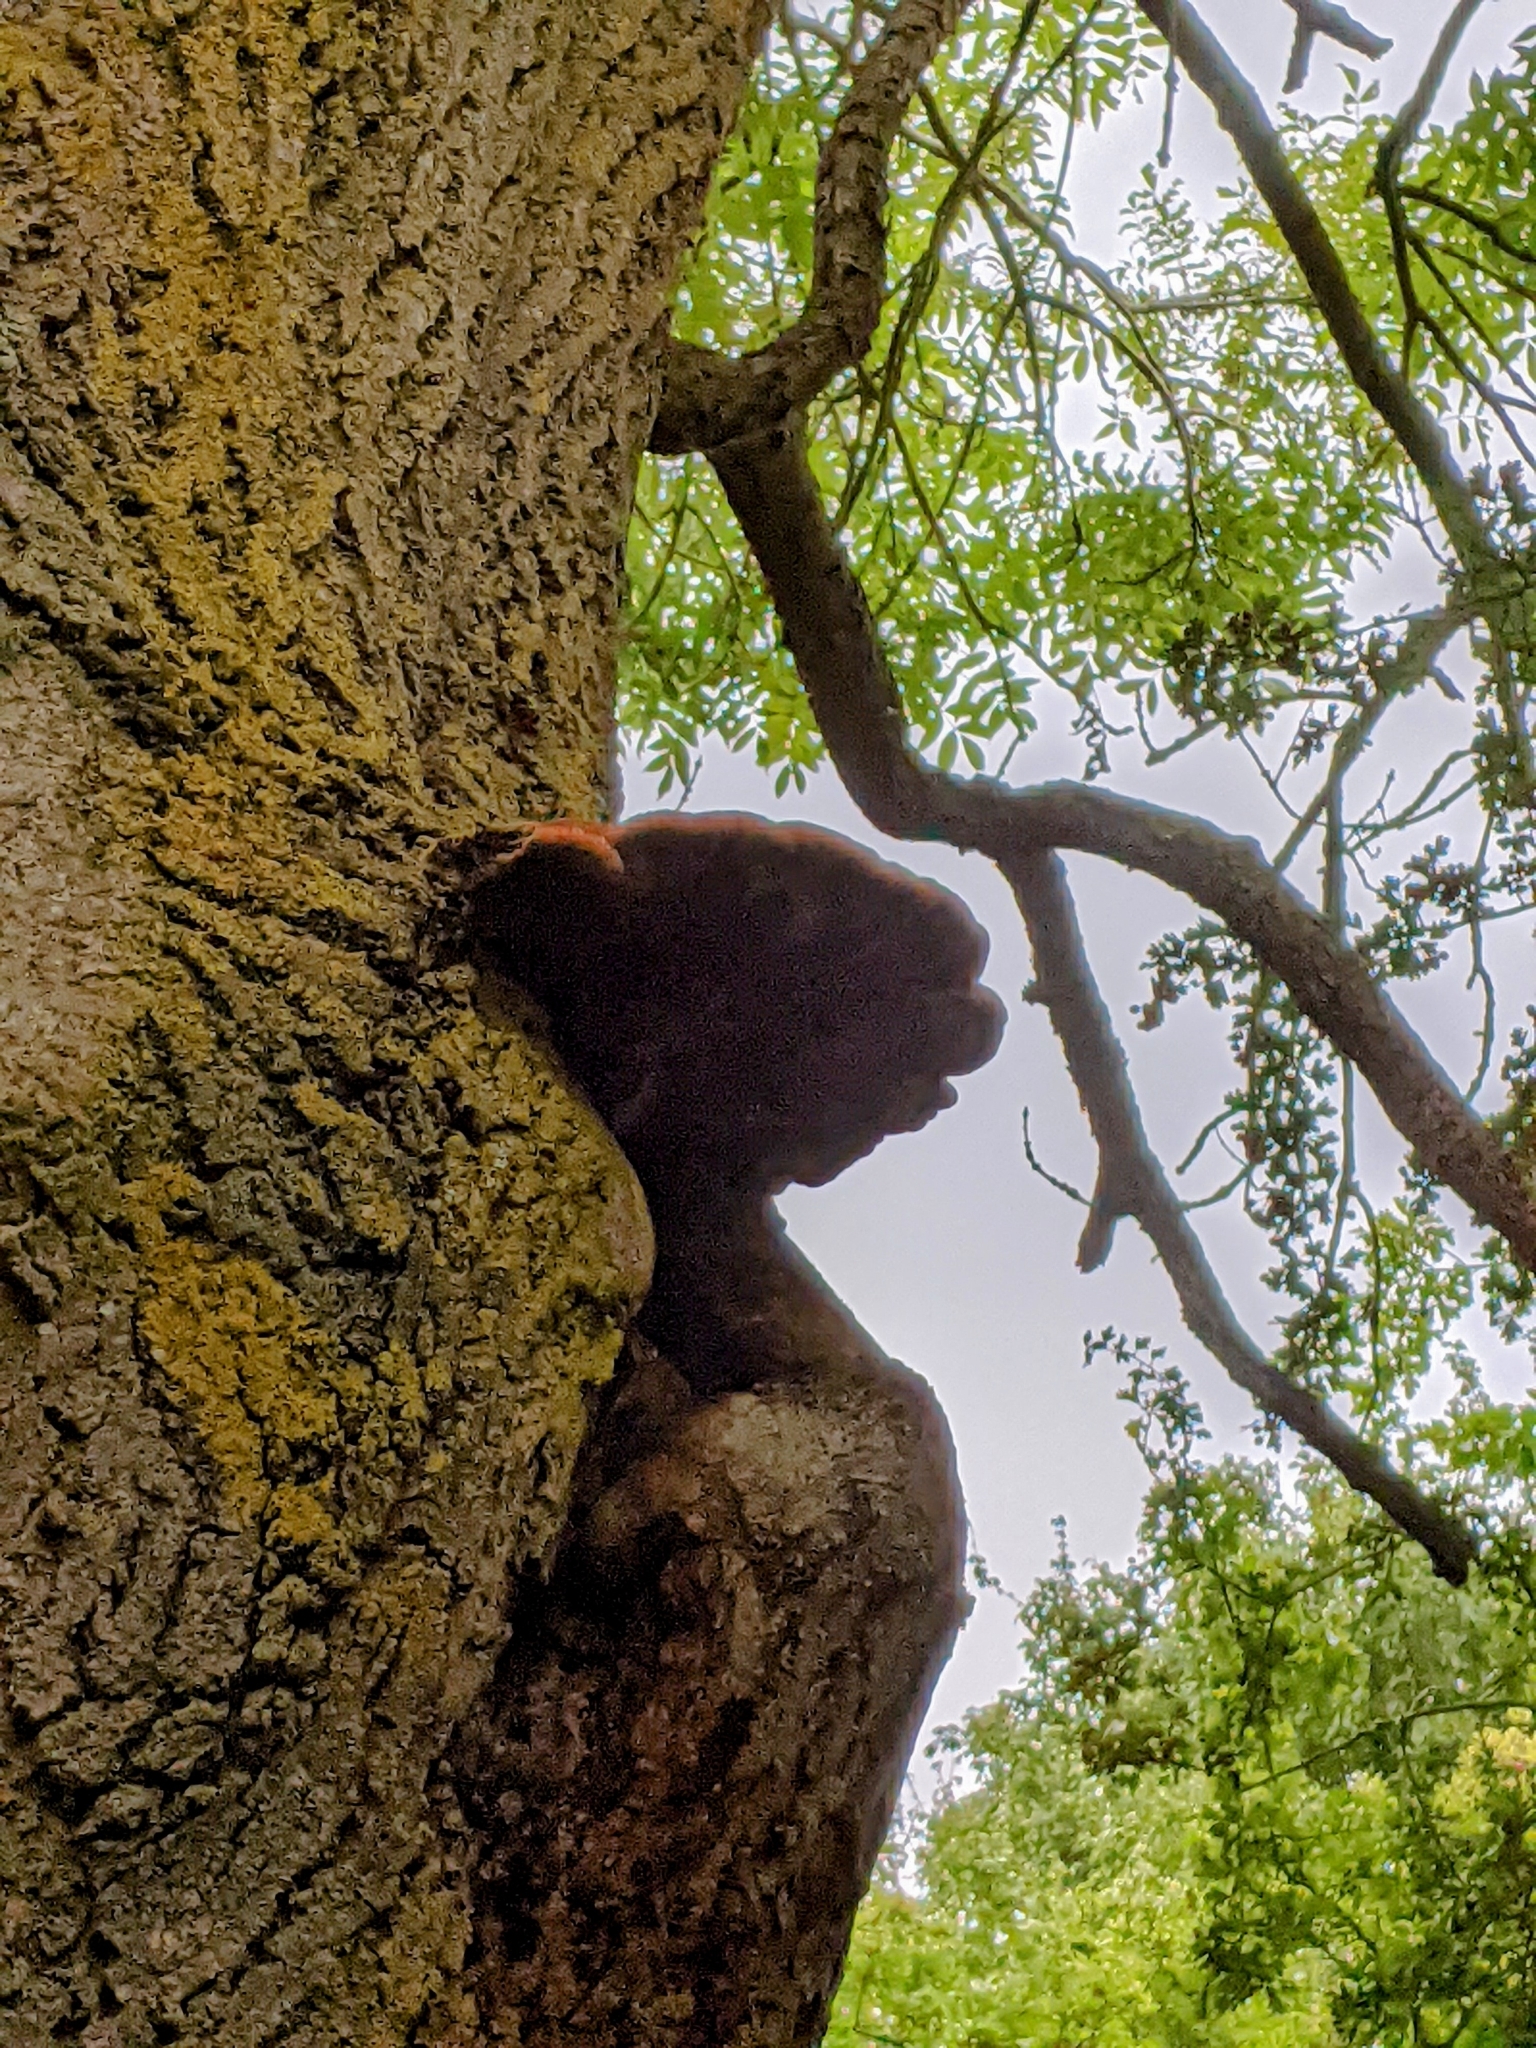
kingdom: Fungi
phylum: Basidiomycota
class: Agaricomycetes
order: Hymenochaetales
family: Hymenochaetaceae
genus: Inonotus
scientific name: Inonotus hispidus
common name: Shaggy bracket
